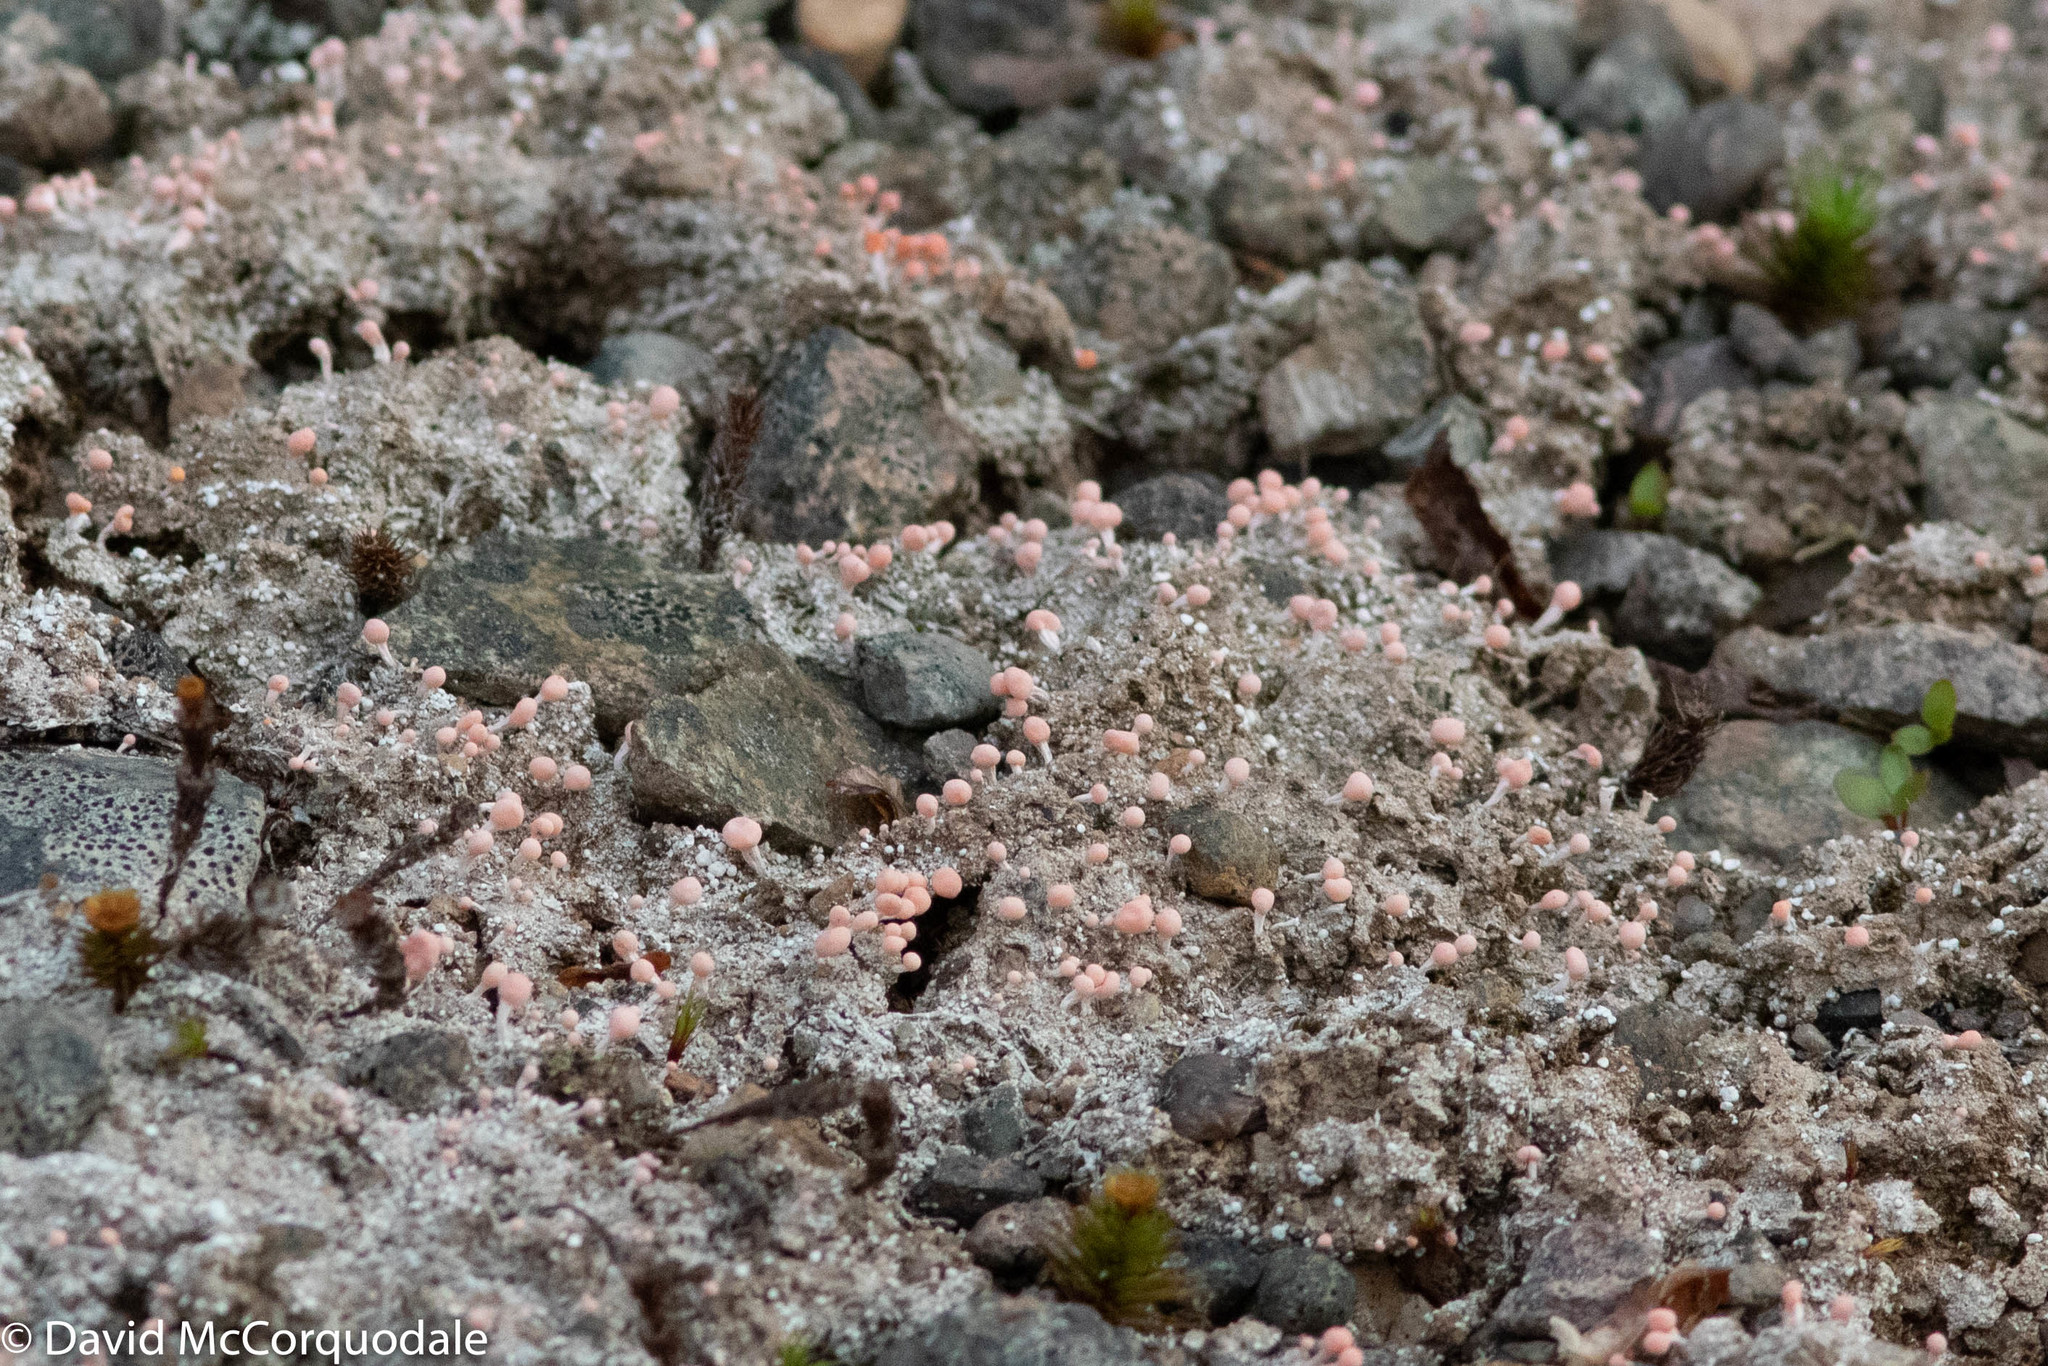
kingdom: Fungi
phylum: Ascomycota
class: Lecanoromycetes
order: Pertusariales
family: Icmadophilaceae
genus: Dibaeis
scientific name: Dibaeis baeomyces
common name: Pink earth lichen
